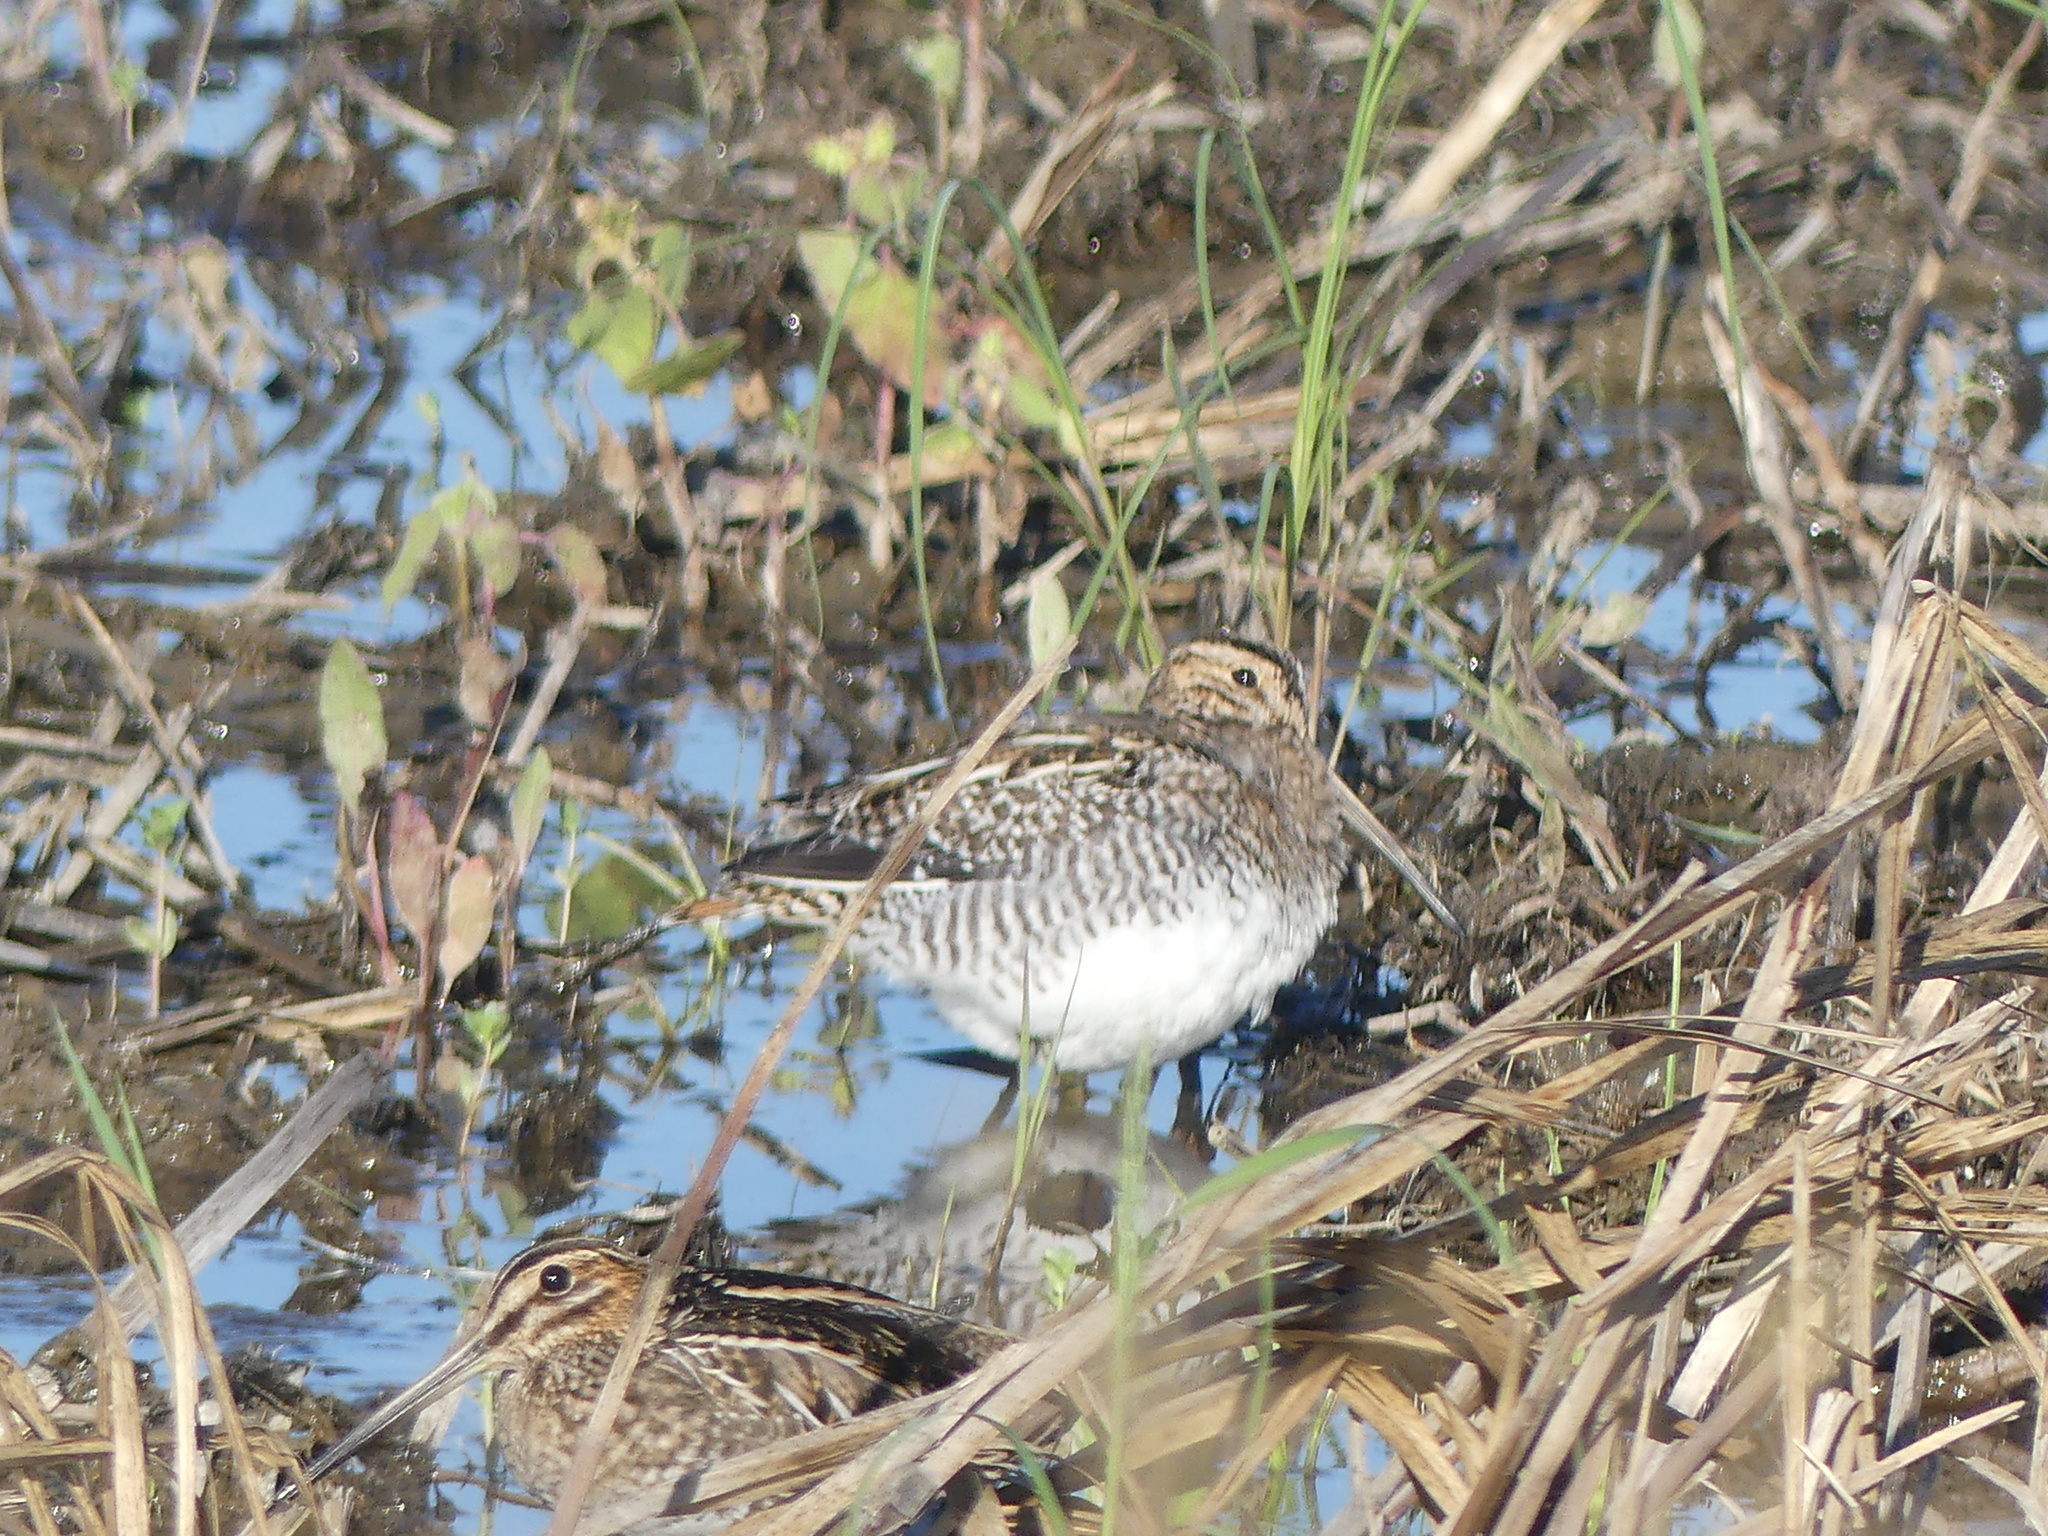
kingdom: Animalia
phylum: Chordata
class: Aves
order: Charadriiformes
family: Scolopacidae
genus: Gallinago
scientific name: Gallinago delicata
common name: Wilson's snipe
